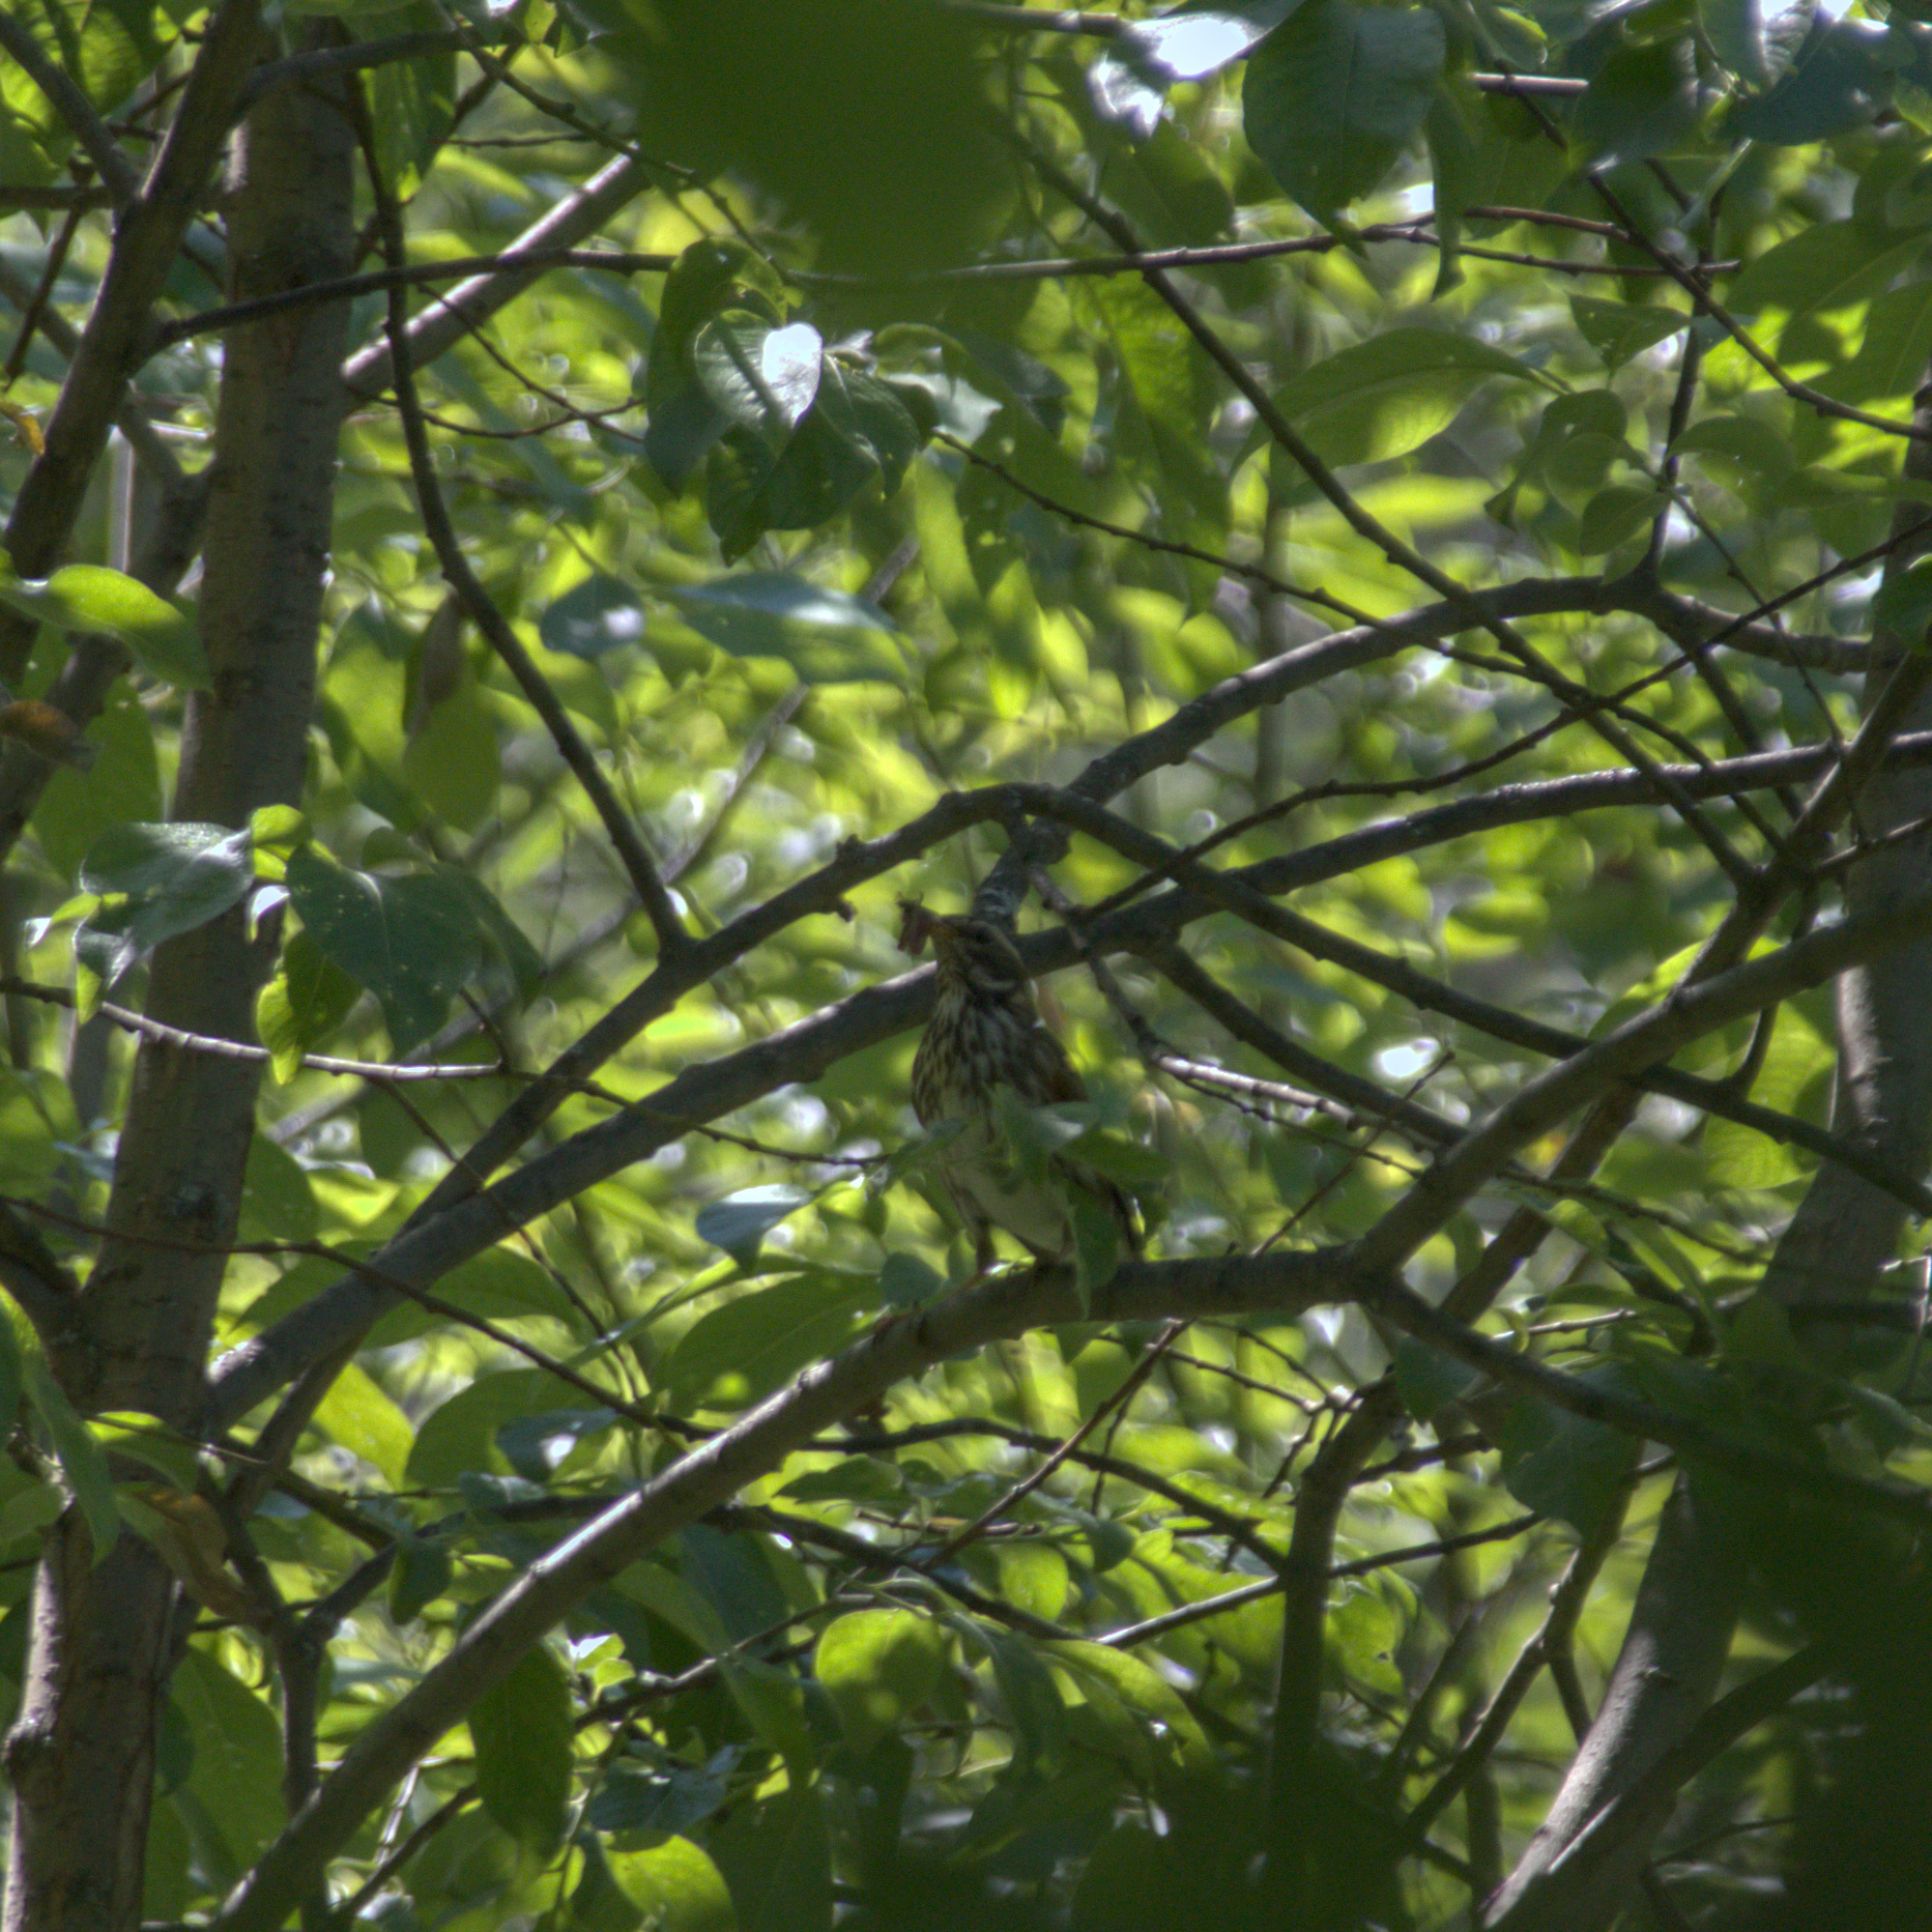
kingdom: Animalia
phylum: Chordata
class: Aves
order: Passeriformes
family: Turdidae
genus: Turdus
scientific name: Turdus iliacus
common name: Redwing
